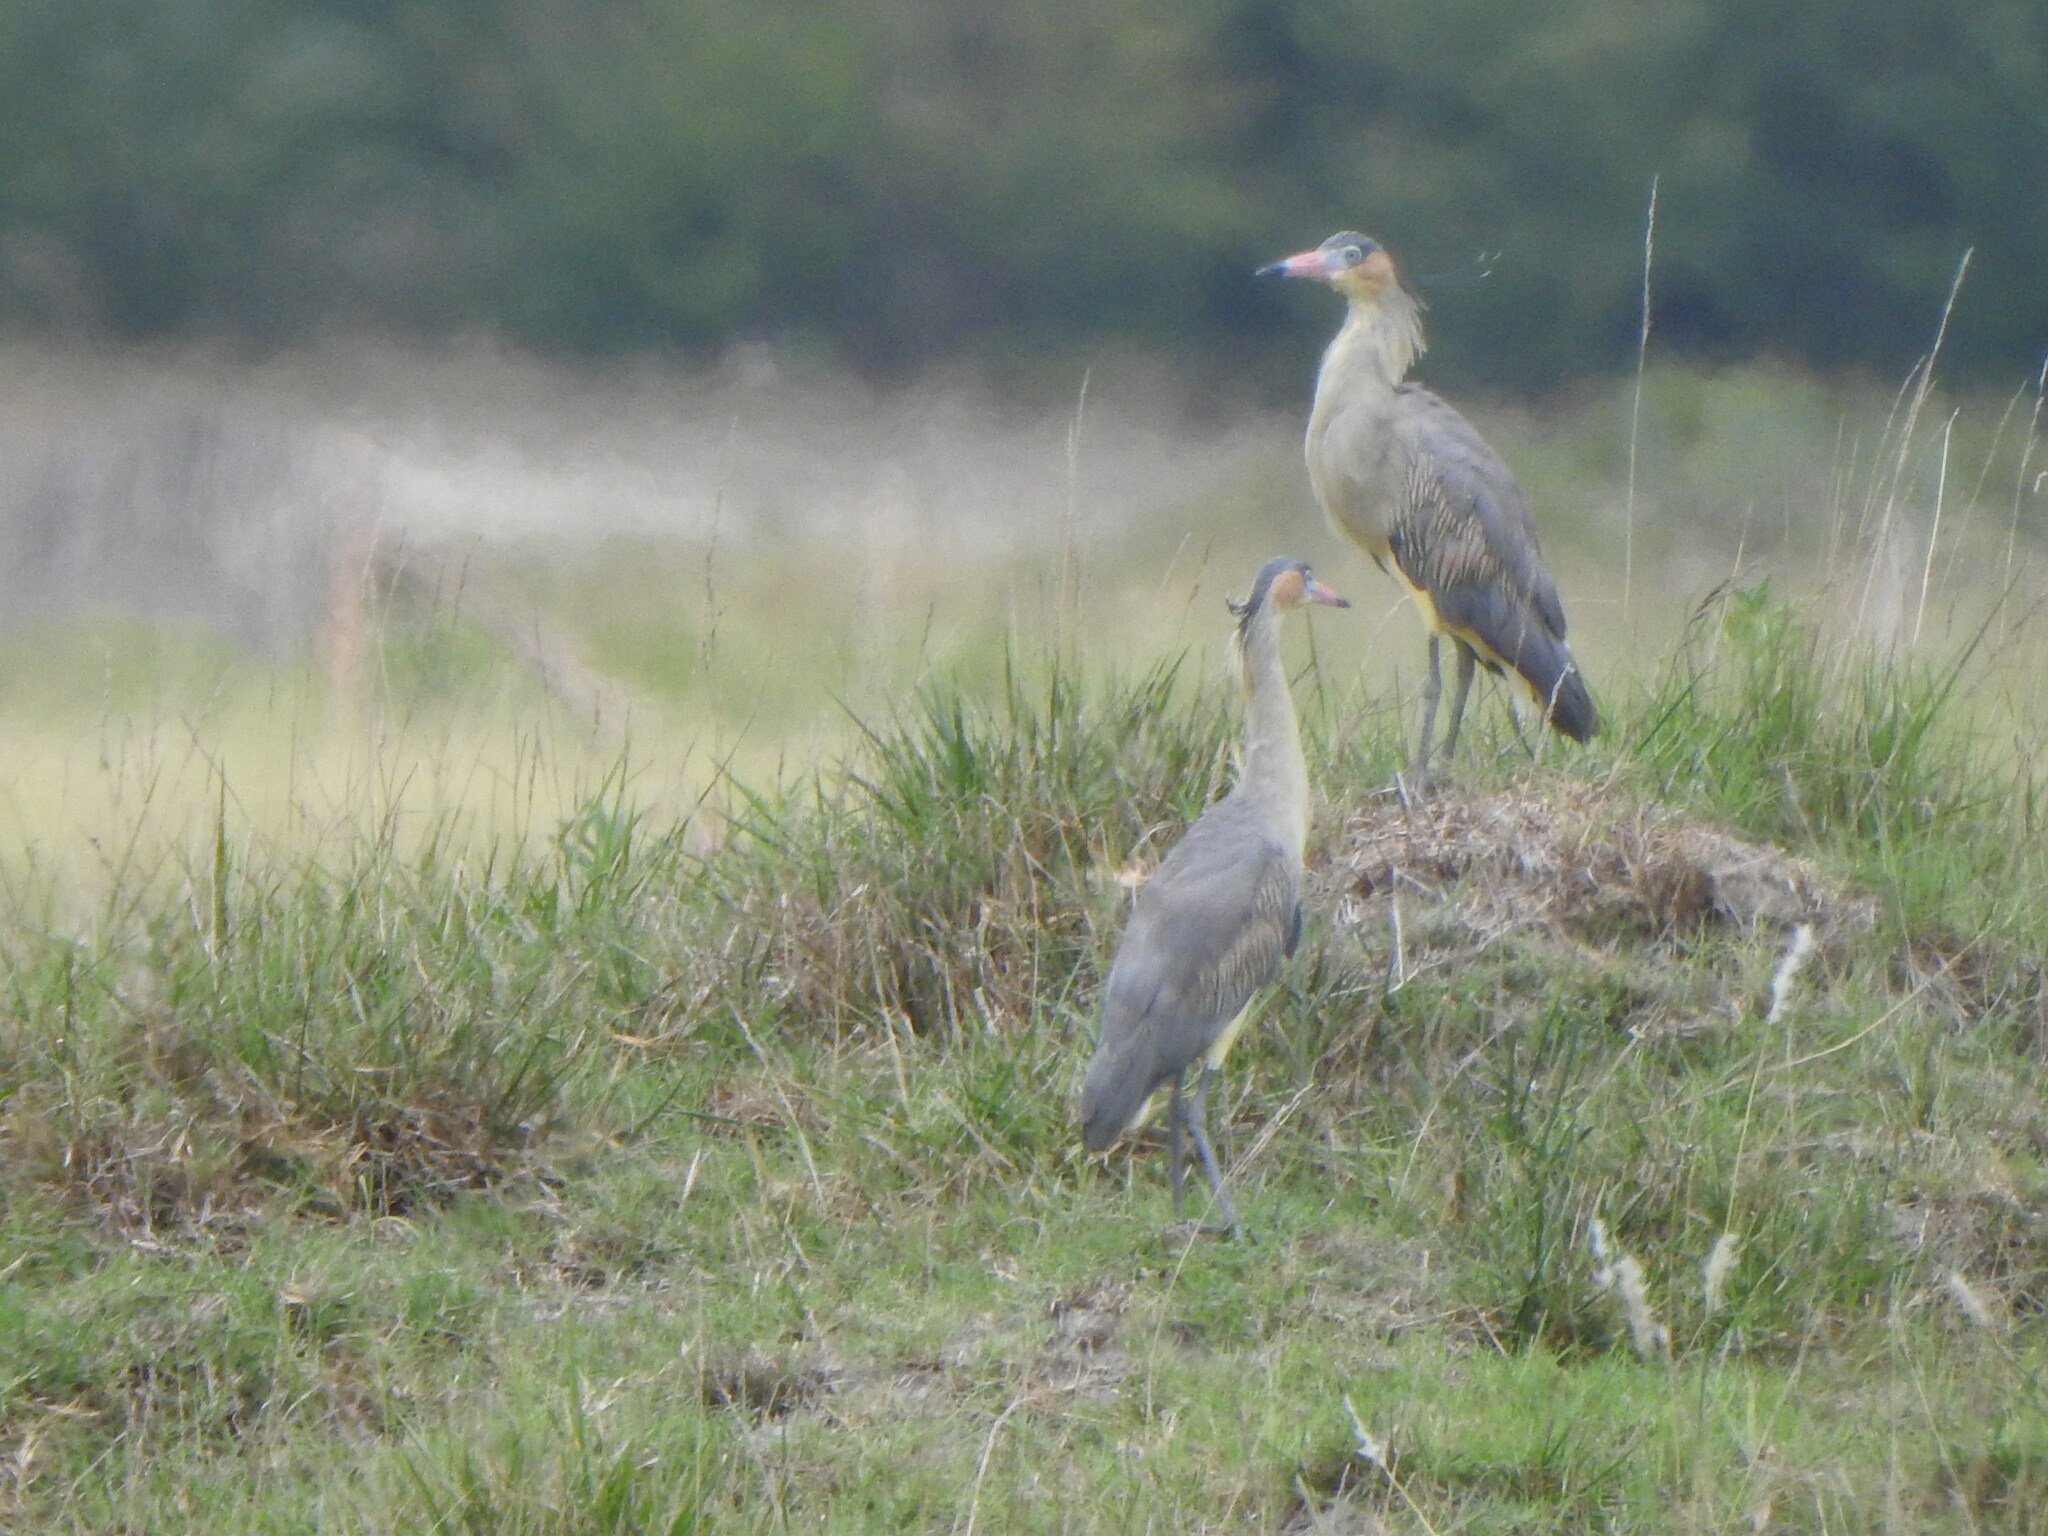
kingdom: Animalia
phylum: Chordata
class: Aves
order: Pelecaniformes
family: Ardeidae
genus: Syrigma
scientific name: Syrigma sibilatrix
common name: Whistling heron
